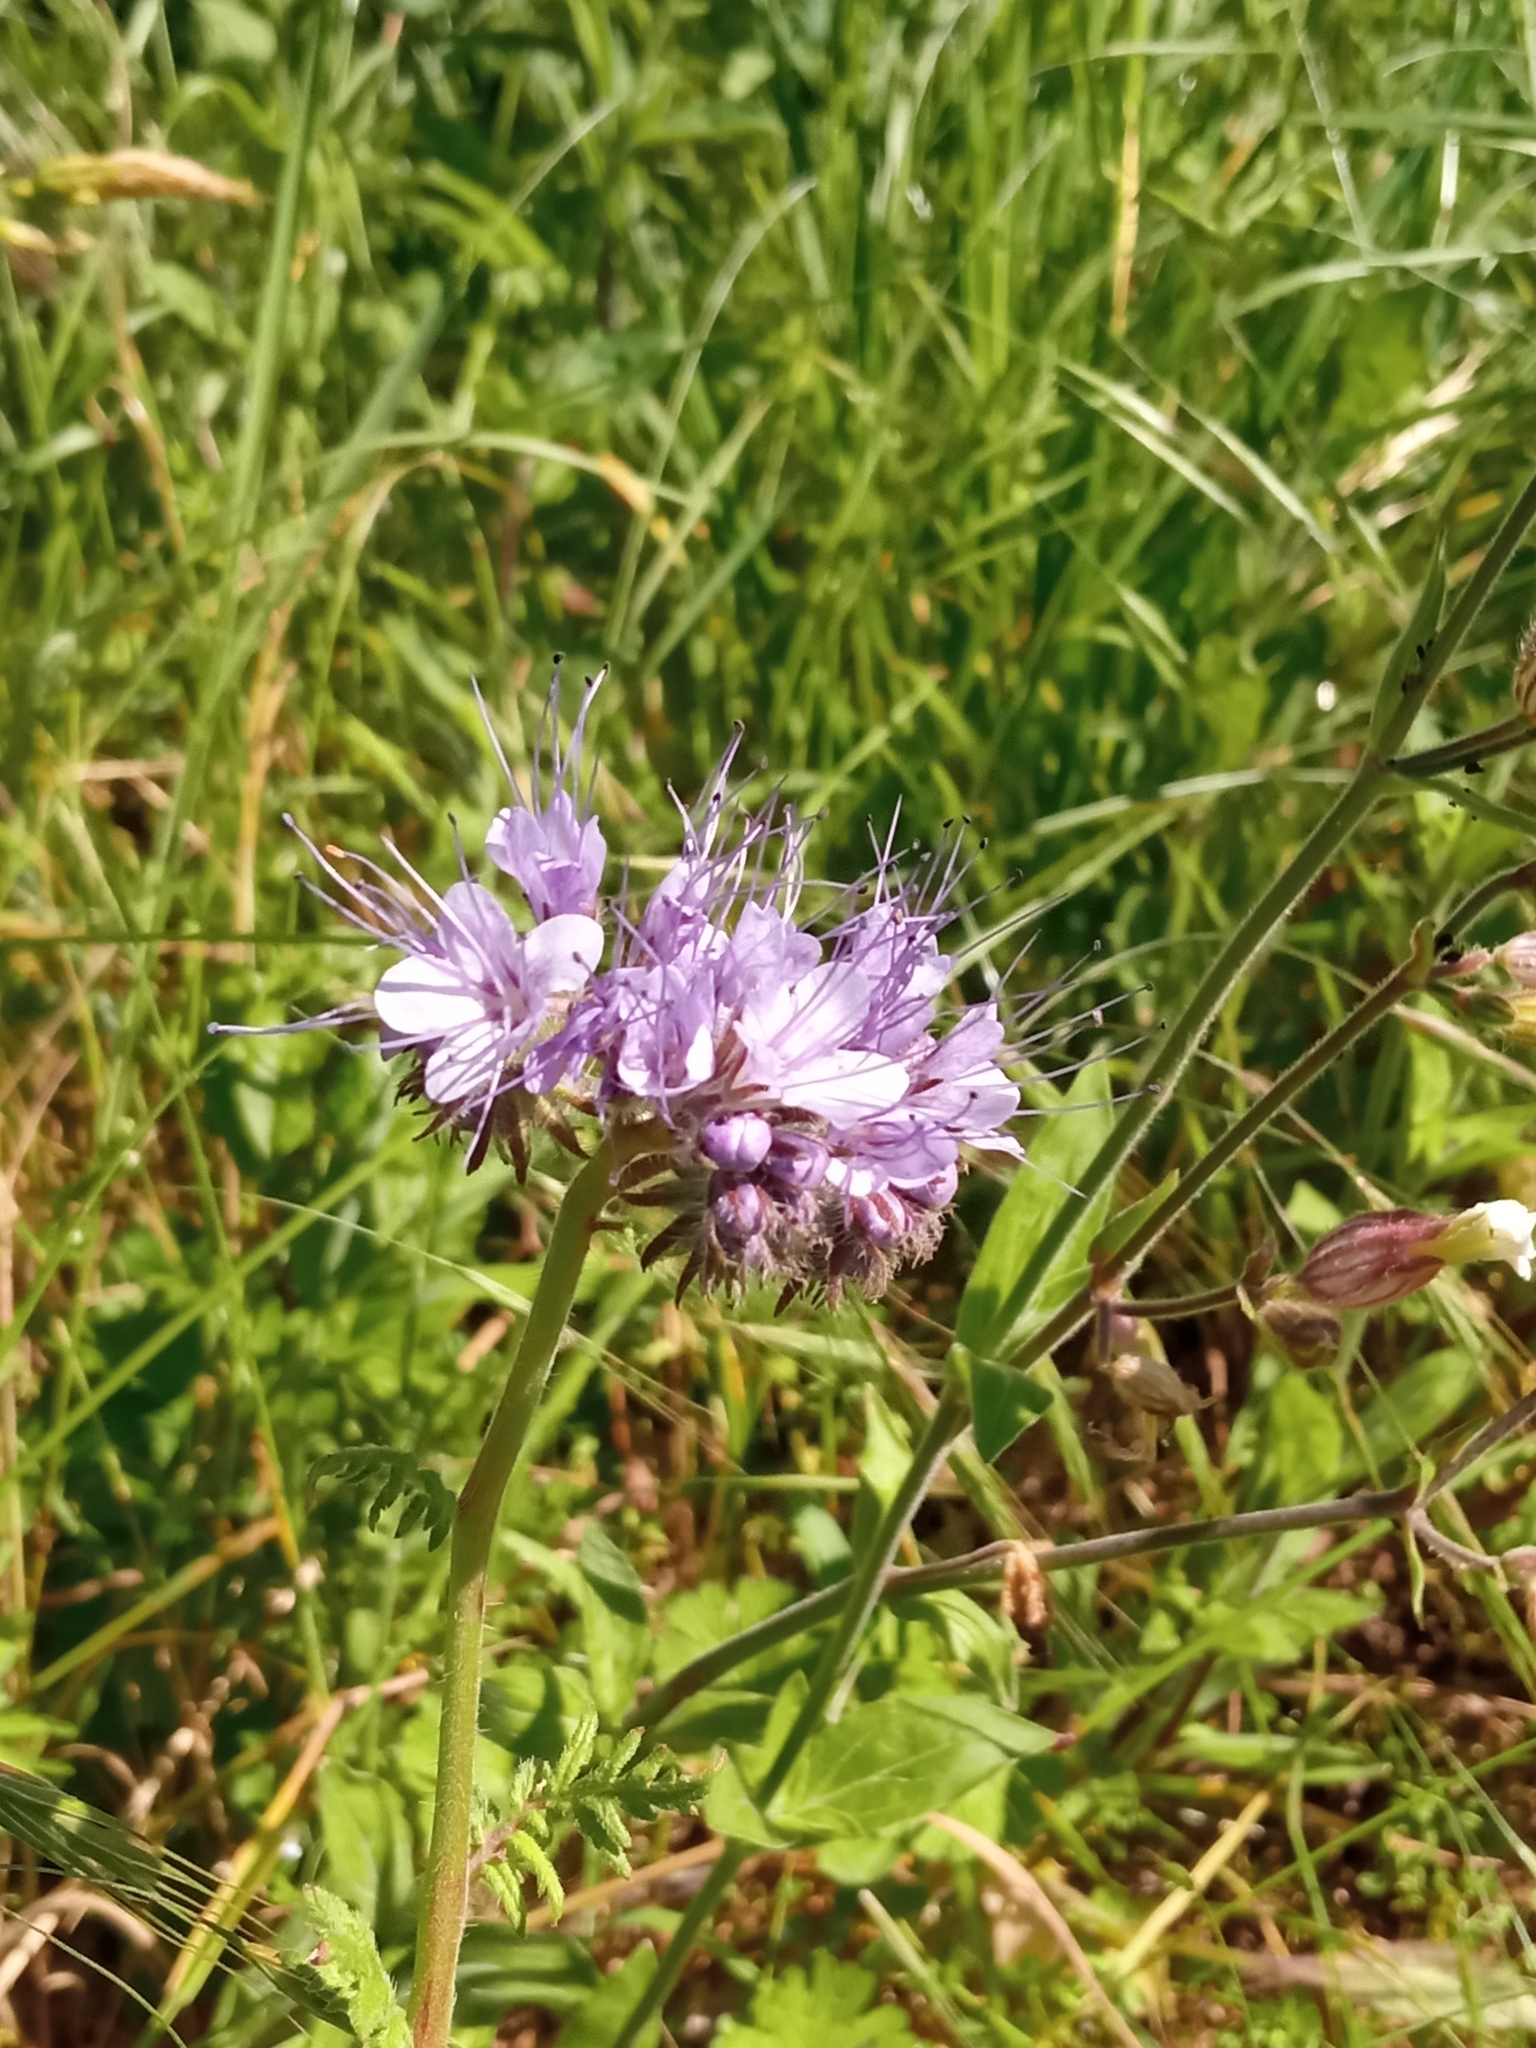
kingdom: Plantae
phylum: Tracheophyta
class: Magnoliopsida
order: Boraginales
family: Hydrophyllaceae
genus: Phacelia
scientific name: Phacelia tanacetifolia
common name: Phacelia
